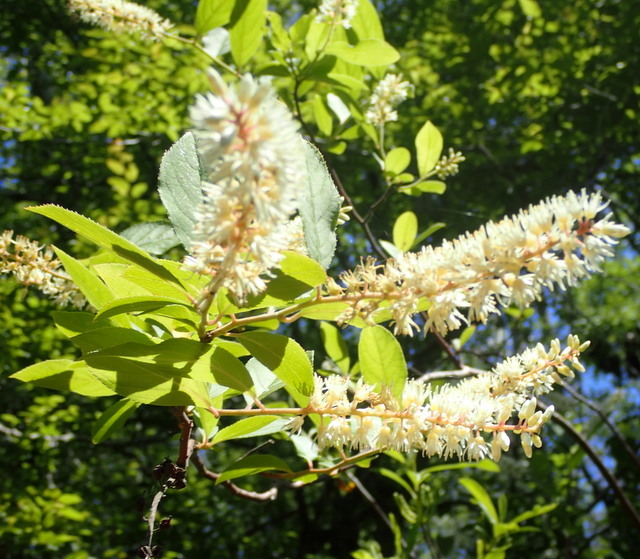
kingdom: Plantae
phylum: Tracheophyta
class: Magnoliopsida
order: Saxifragales
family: Iteaceae
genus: Itea
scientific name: Itea virginica
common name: Sweetspire
